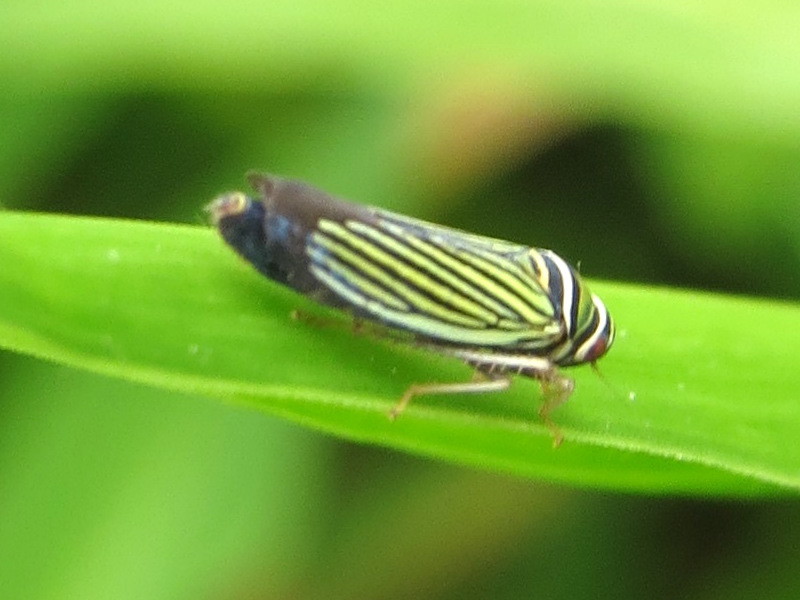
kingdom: Animalia
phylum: Arthropoda
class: Insecta
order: Hemiptera
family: Cicadellidae
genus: Tylozygus
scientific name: Tylozygus bifidus
